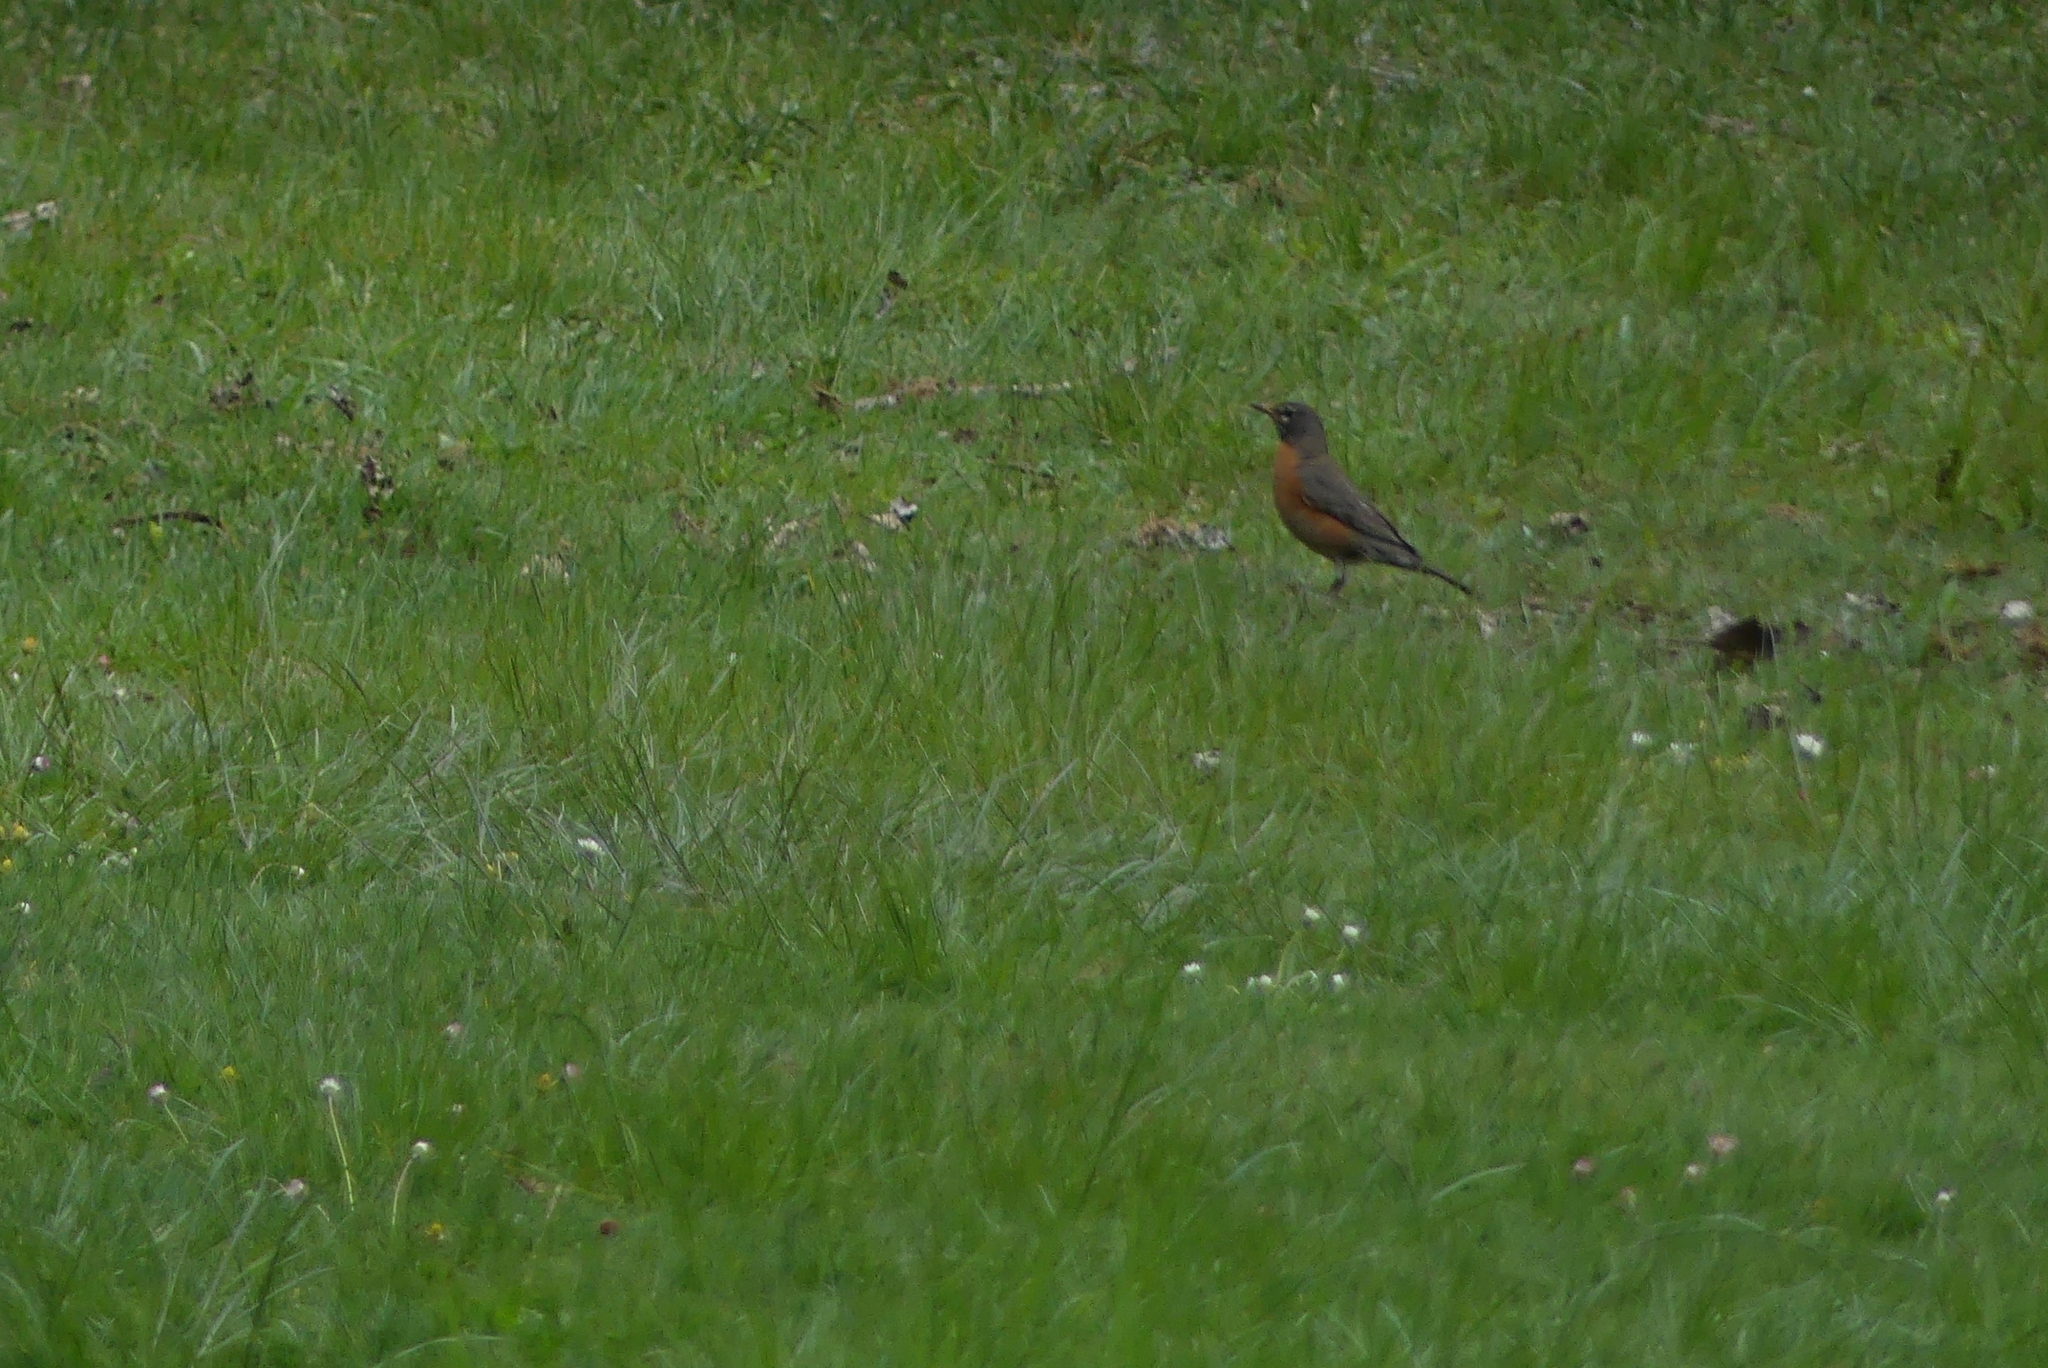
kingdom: Animalia
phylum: Chordata
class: Aves
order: Passeriformes
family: Turdidae
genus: Turdus
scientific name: Turdus migratorius
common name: American robin
